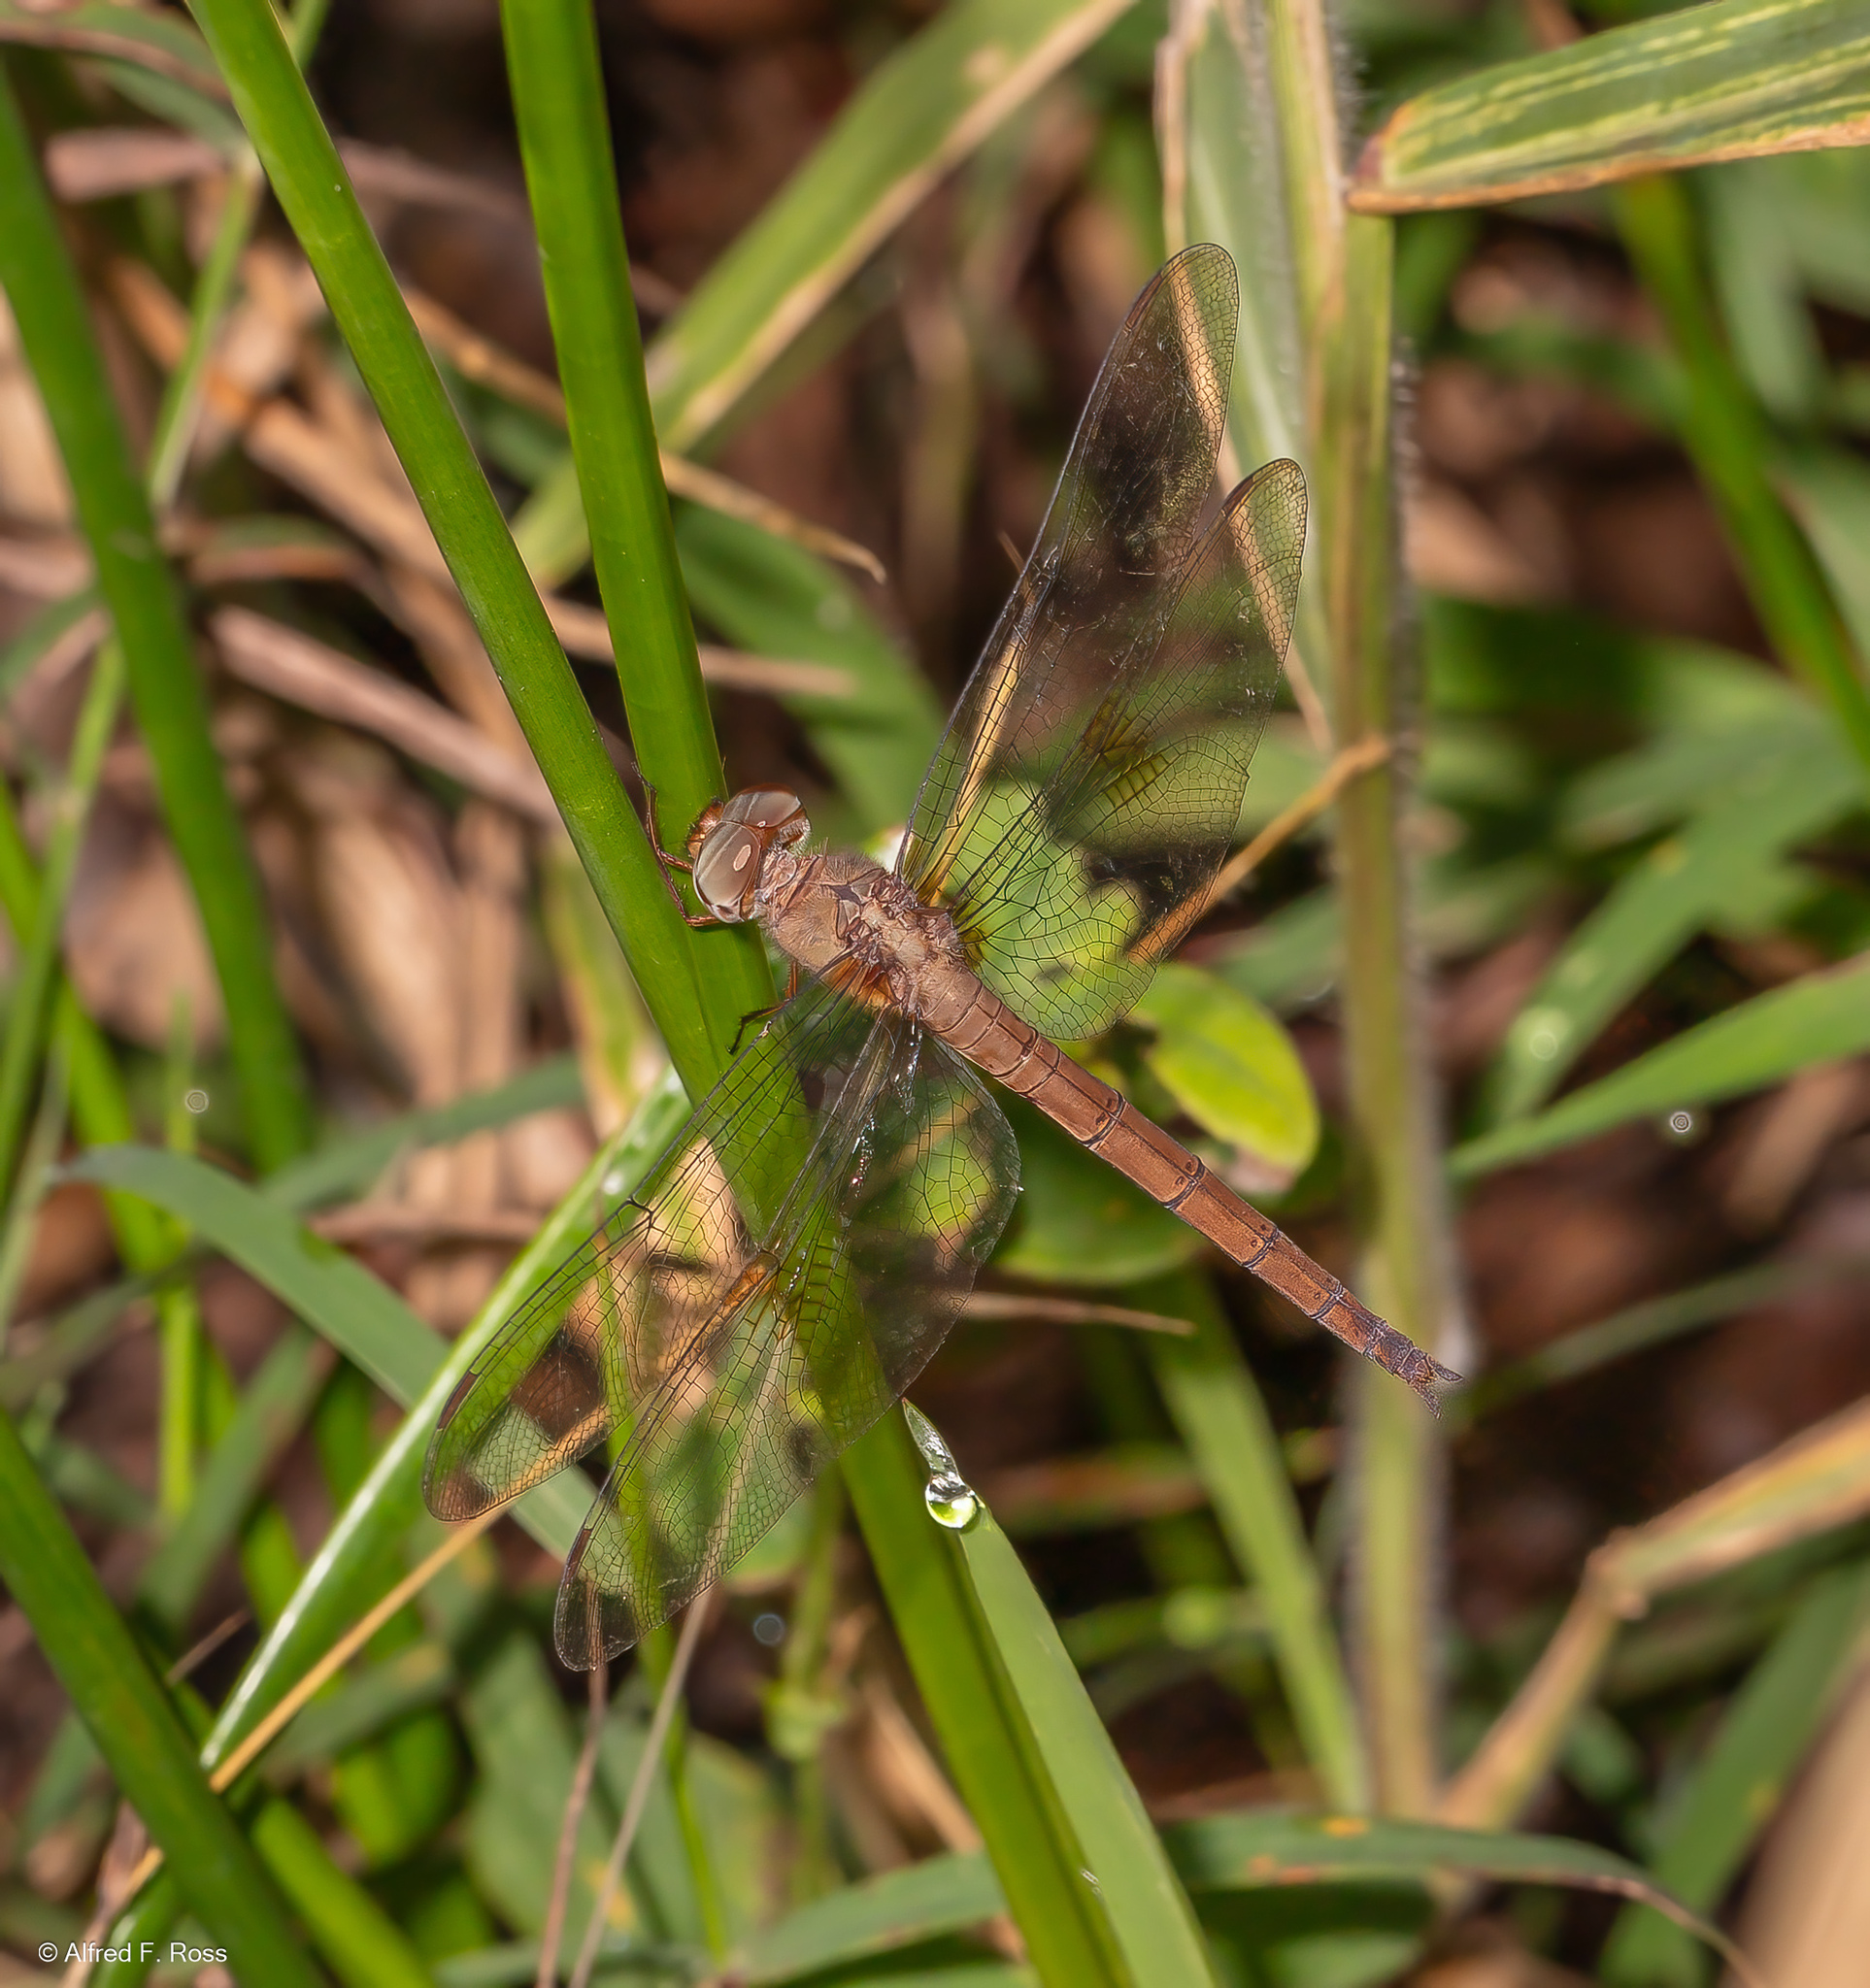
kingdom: Animalia
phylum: Arthropoda
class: Insecta
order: Odonata
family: Libellulidae
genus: Tholymis
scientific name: Tholymis citrina
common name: Evening skimmer
